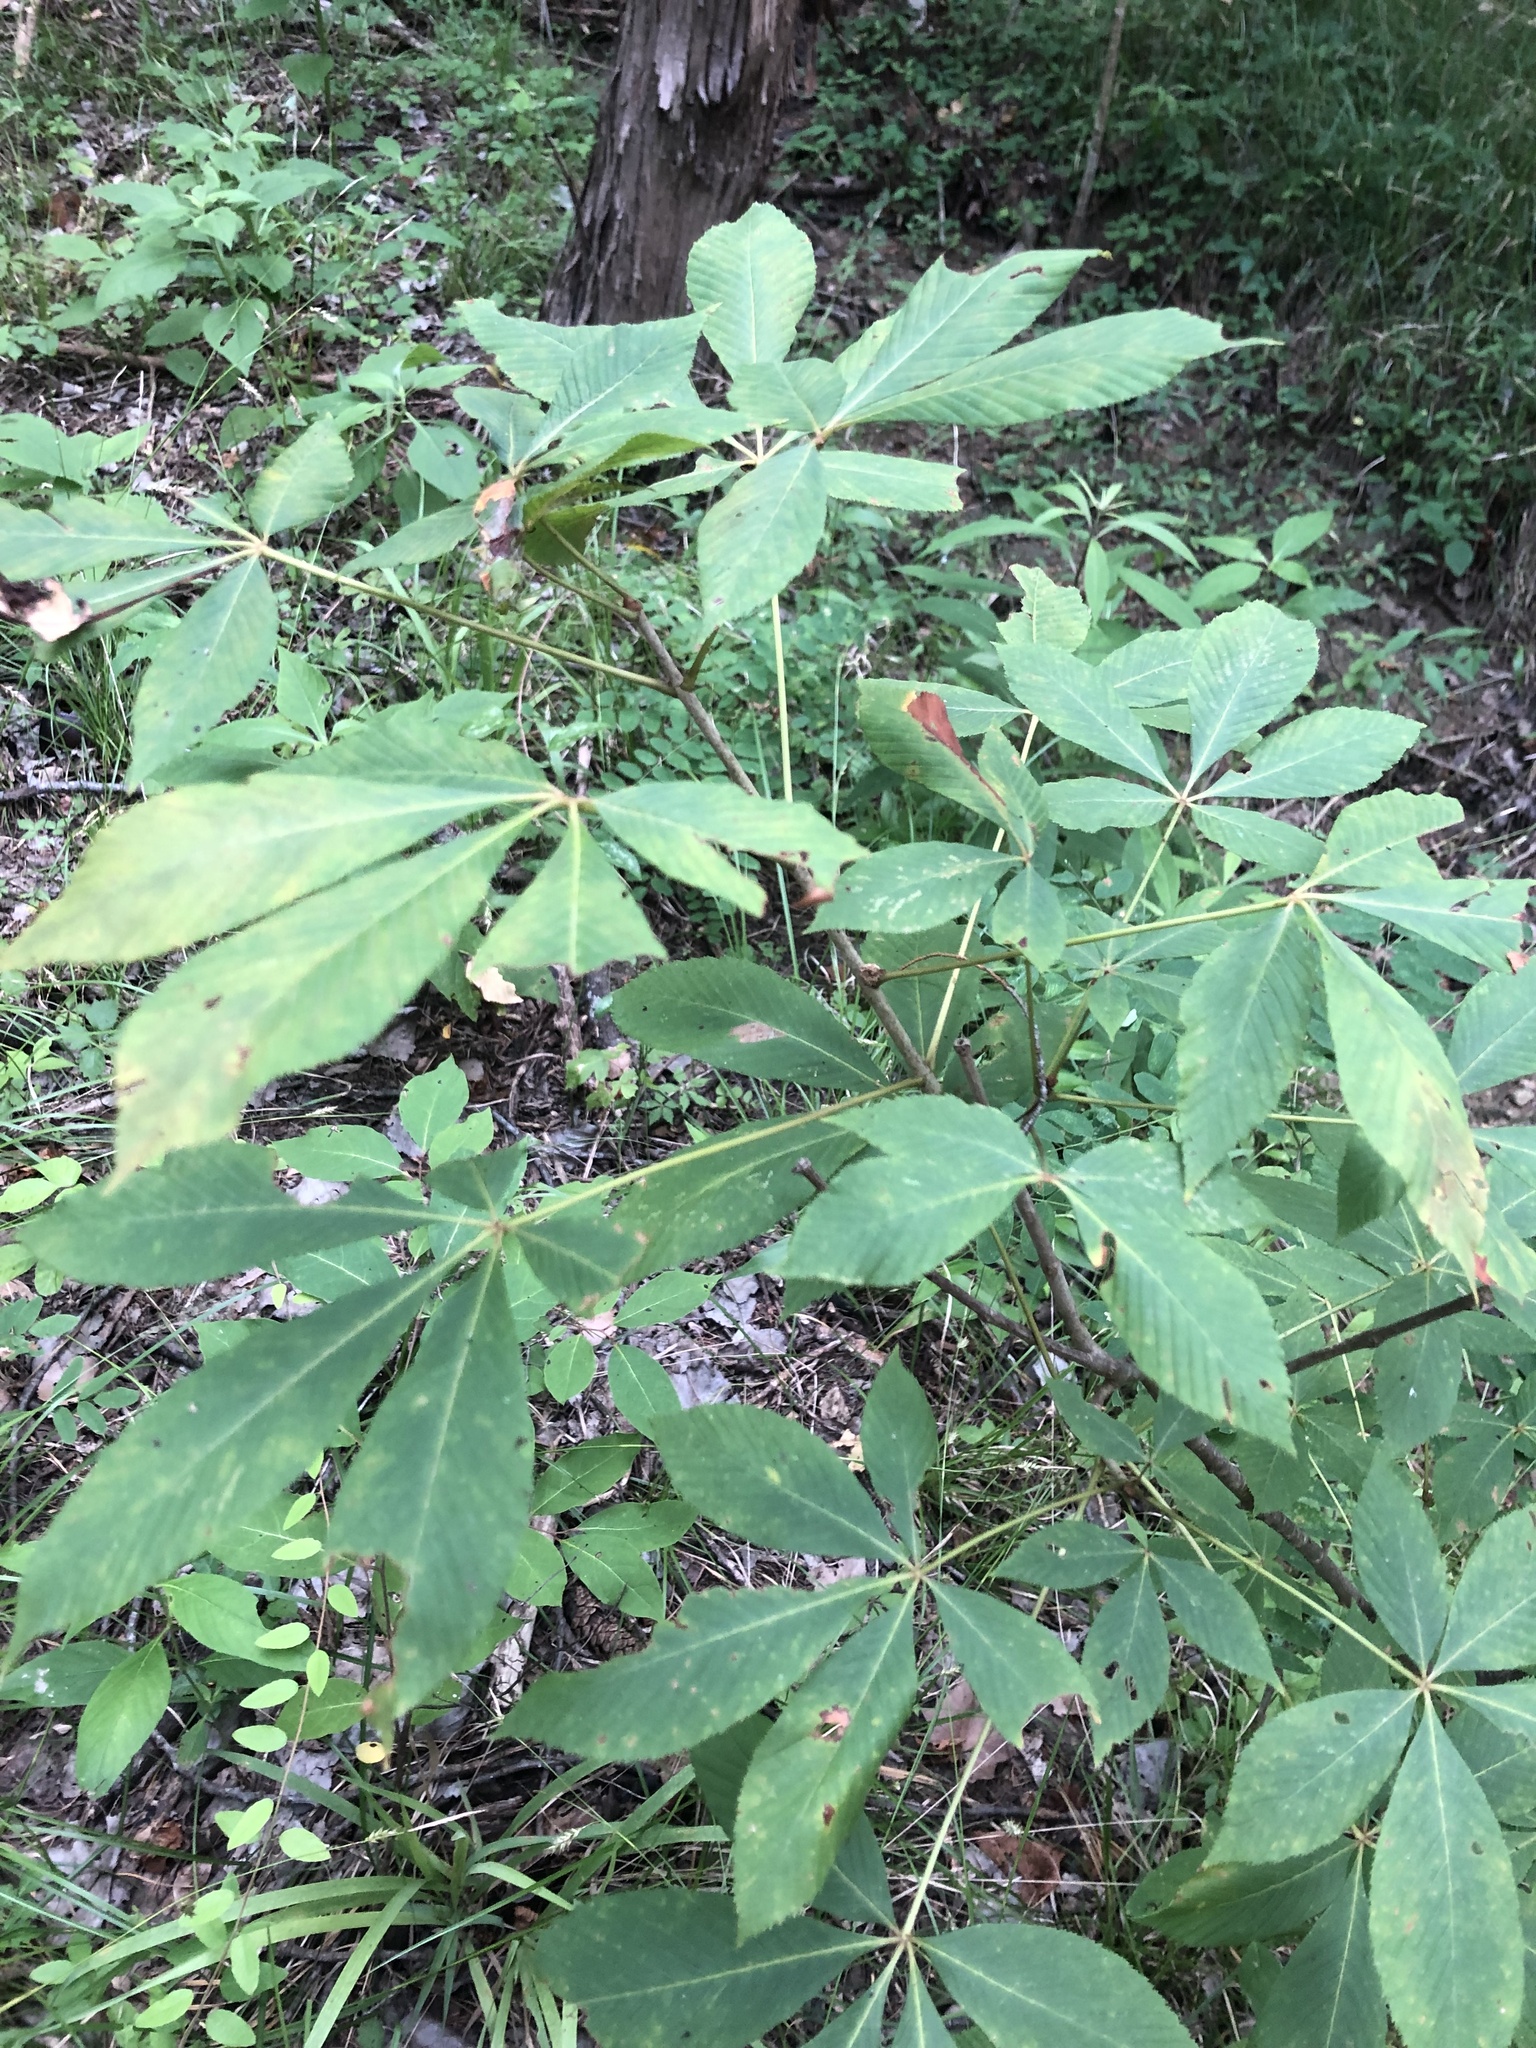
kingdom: Plantae
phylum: Tracheophyta
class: Magnoliopsida
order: Sapindales
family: Sapindaceae
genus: Aesculus
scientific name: Aesculus pavia
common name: Red buckeye
